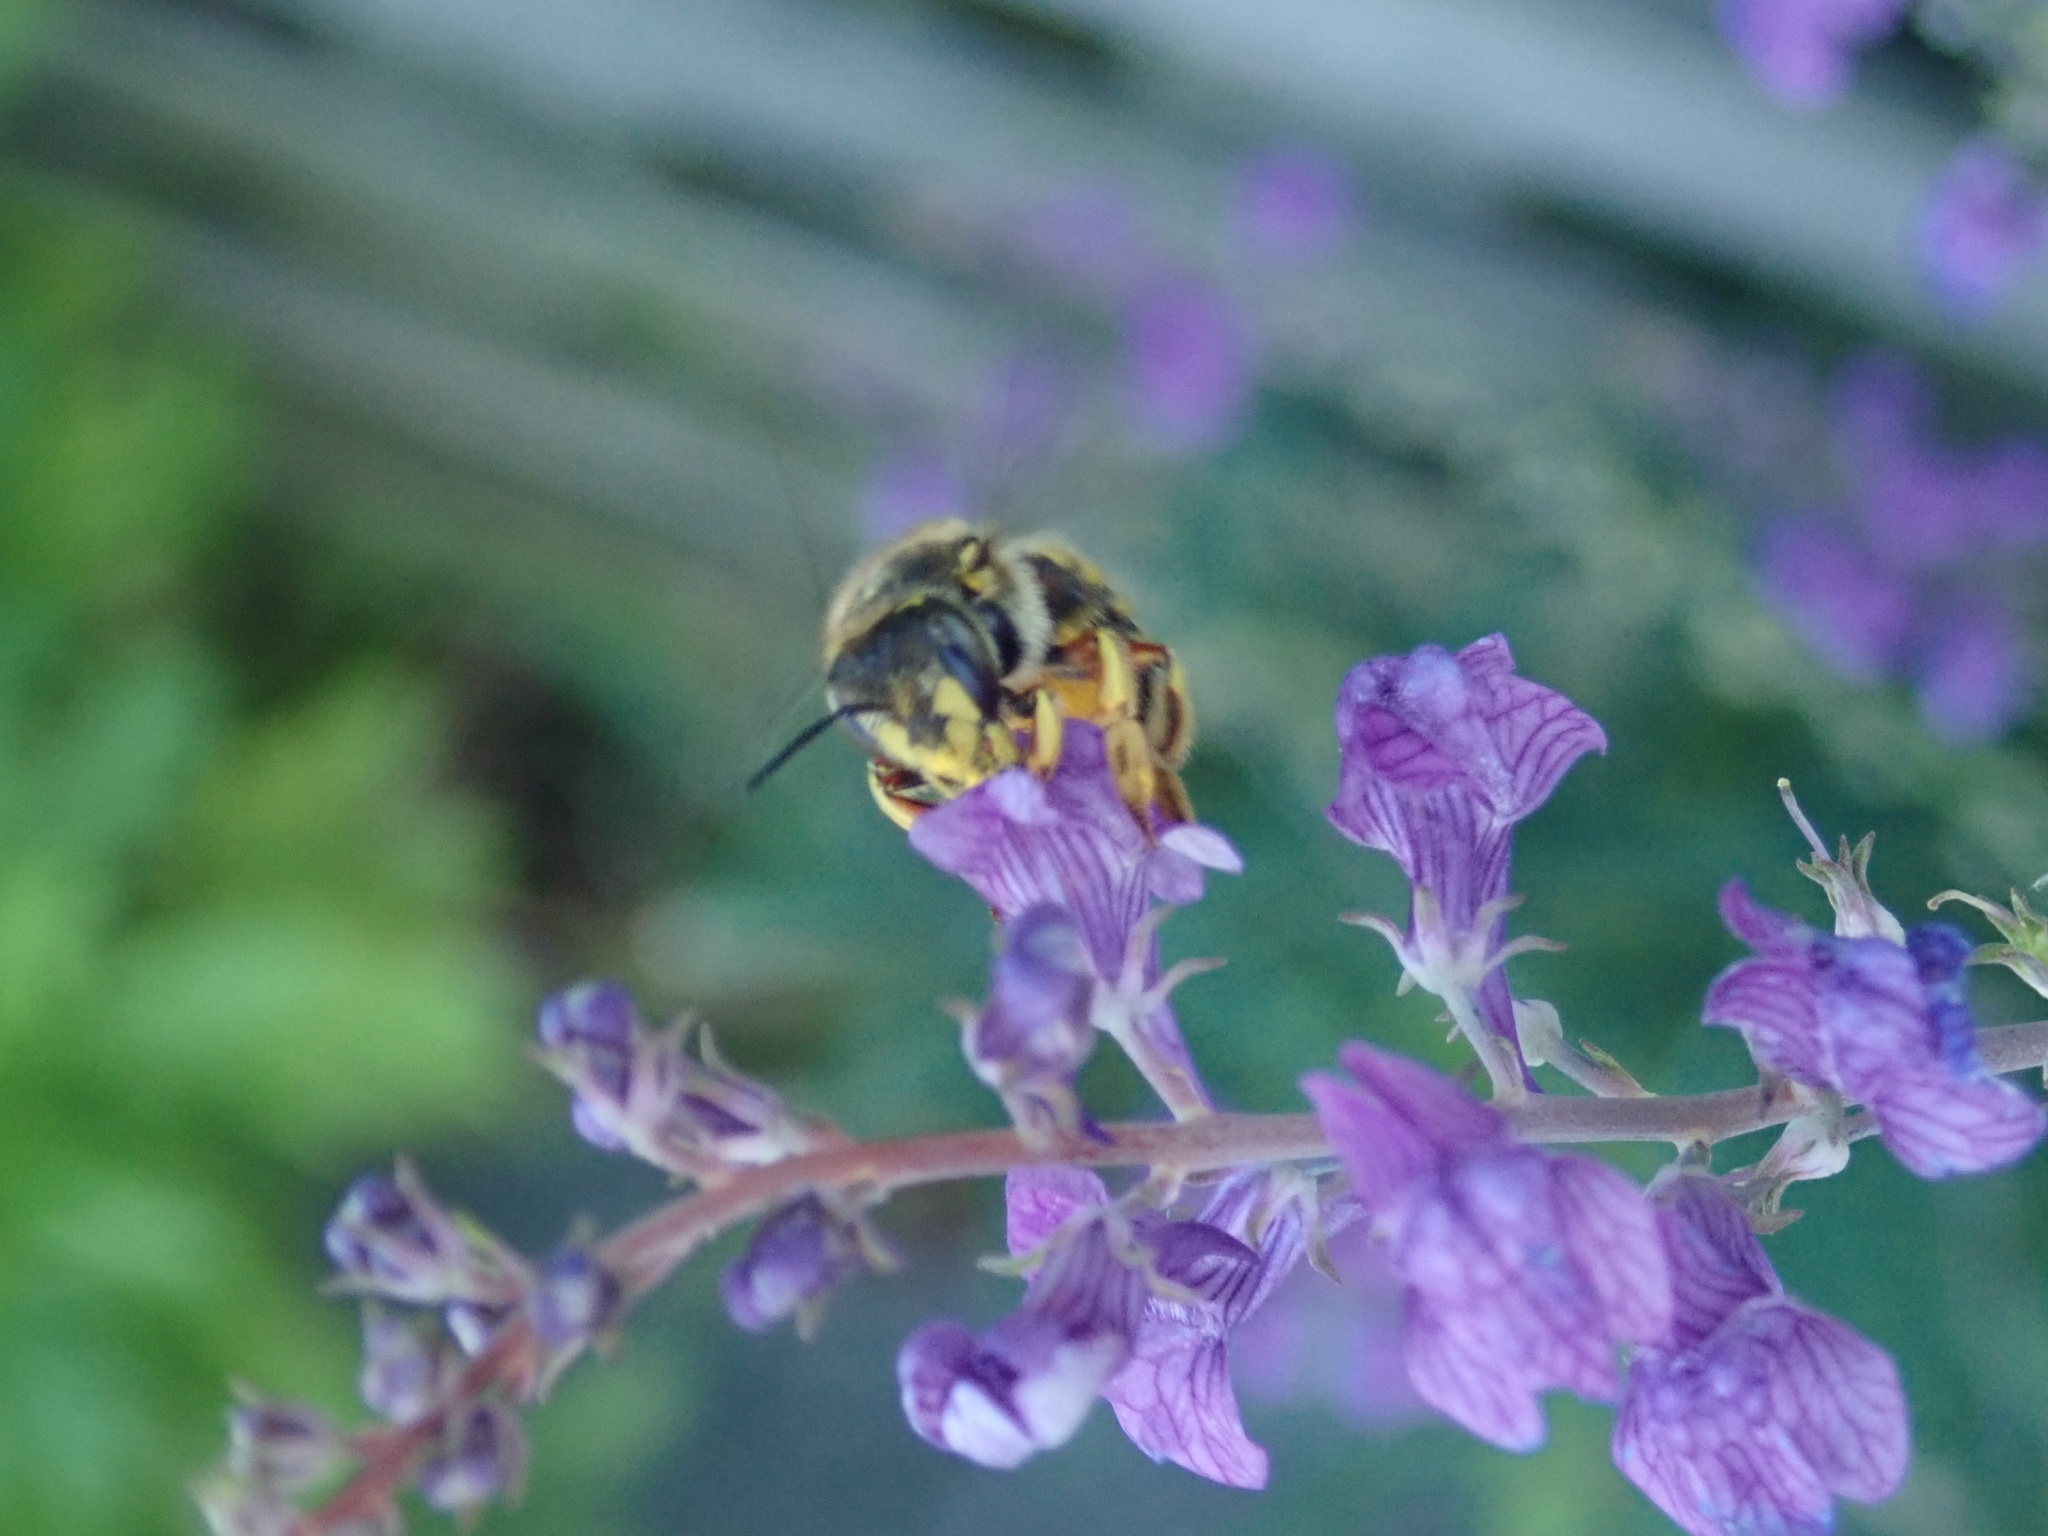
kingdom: Animalia
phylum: Arthropoda
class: Insecta
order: Hymenoptera
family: Megachilidae
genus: Anthidium
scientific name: Anthidium manicatum
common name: Wool carder bee
